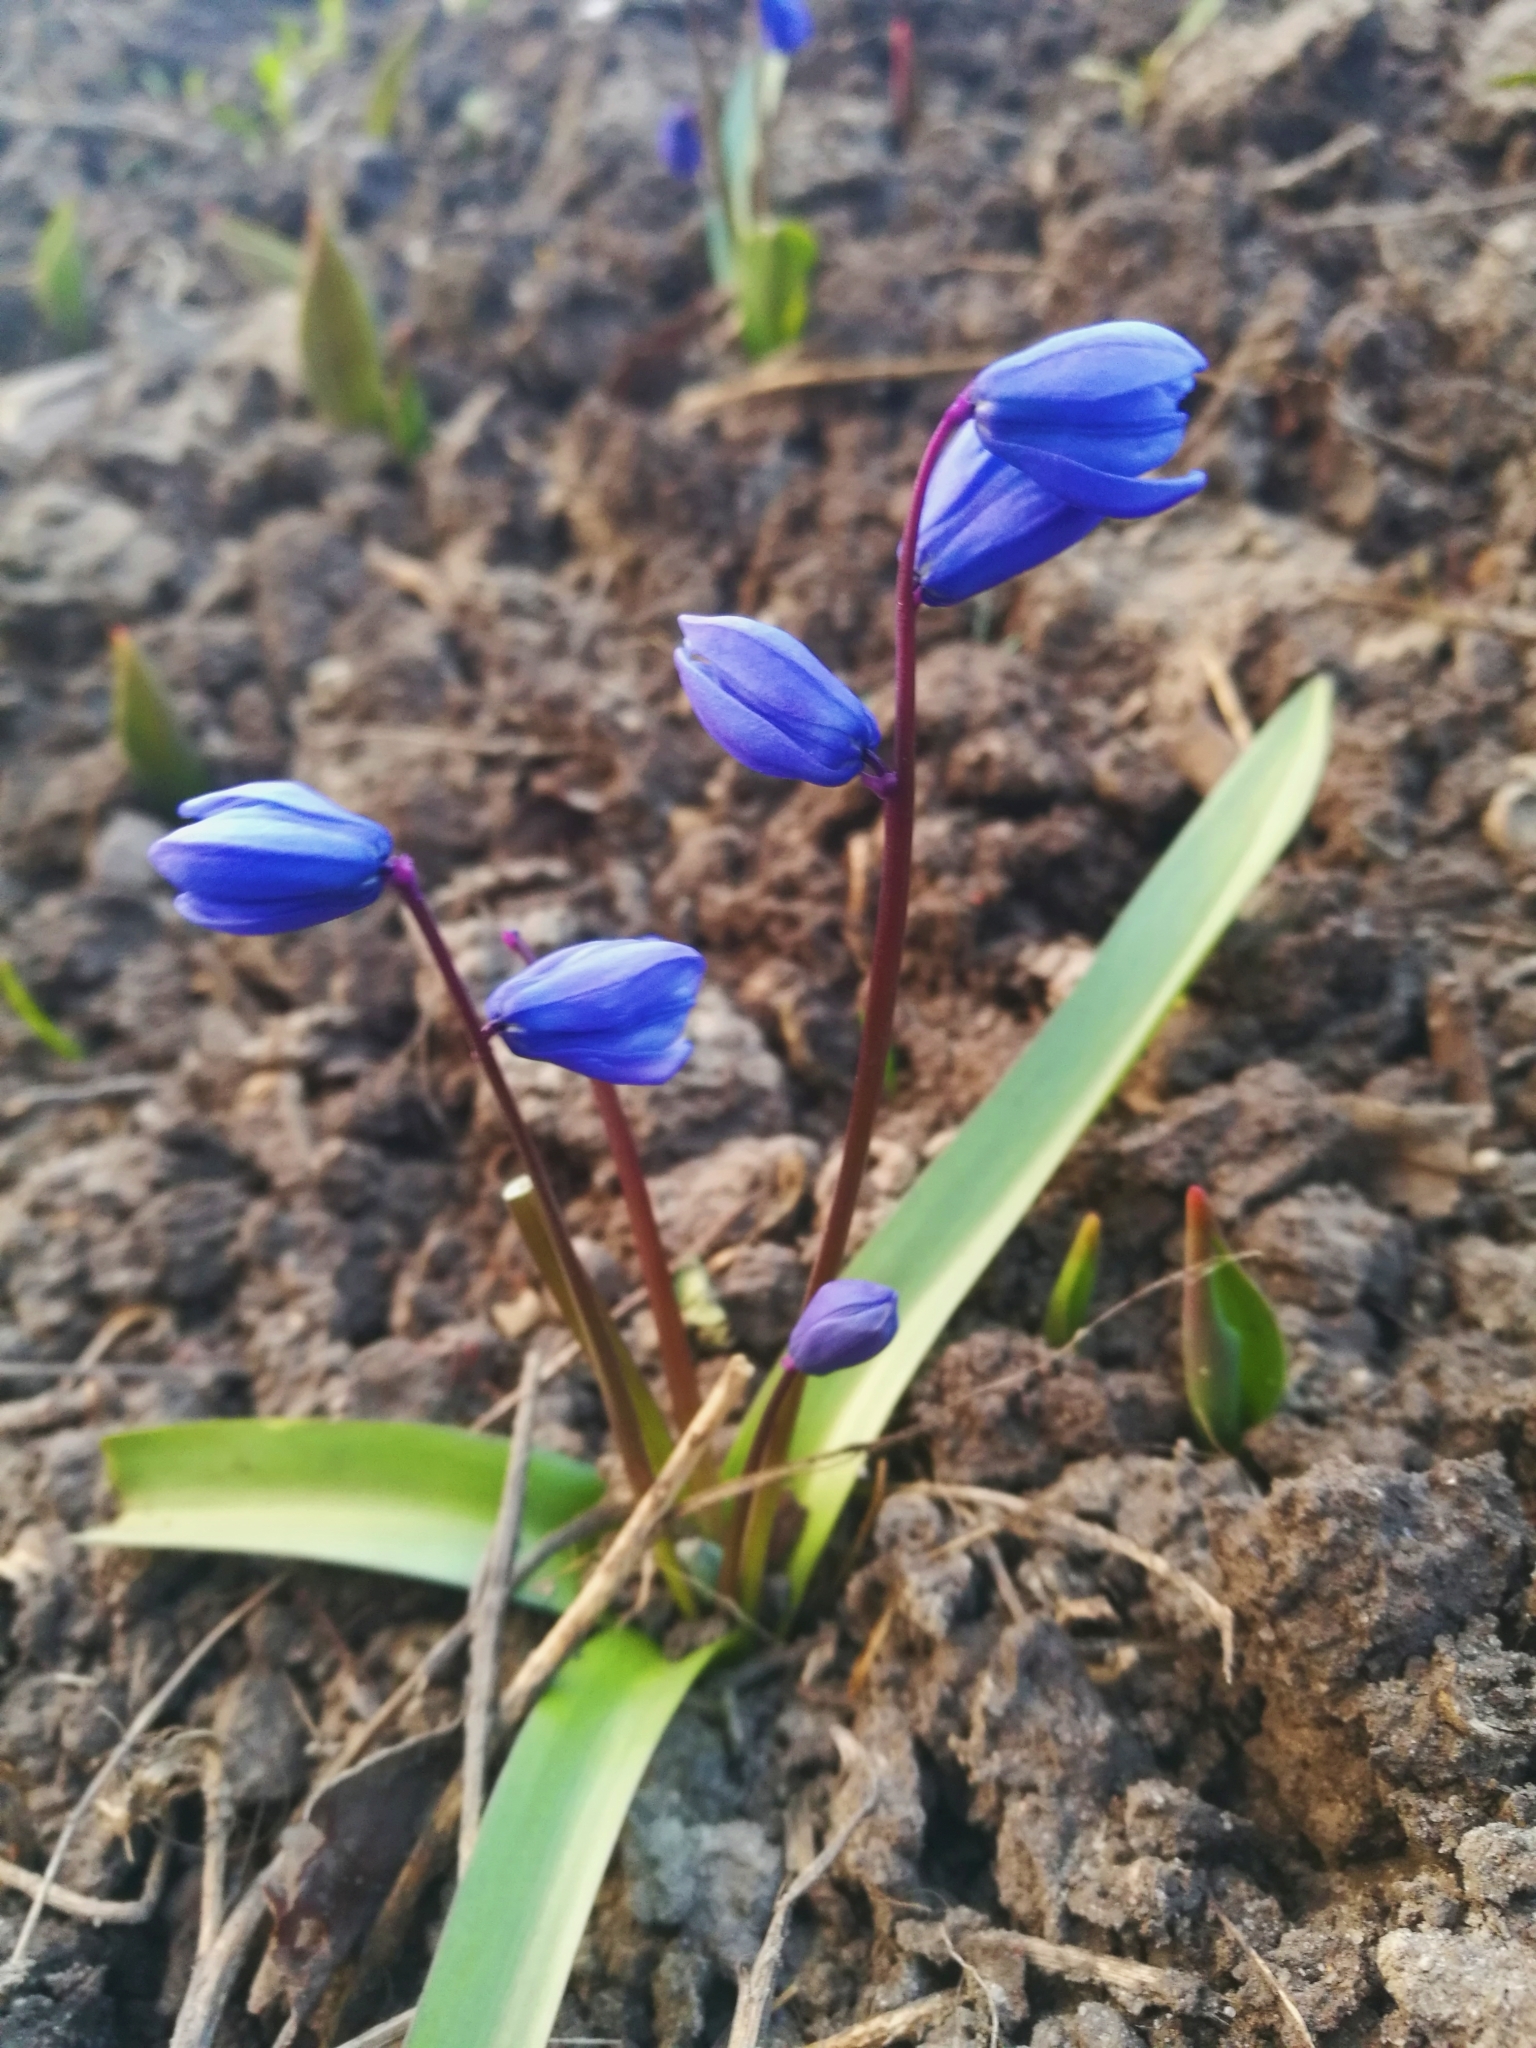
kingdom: Plantae
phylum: Tracheophyta
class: Liliopsida
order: Asparagales
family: Asparagaceae
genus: Scilla
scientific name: Scilla siberica
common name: Siberian squill
